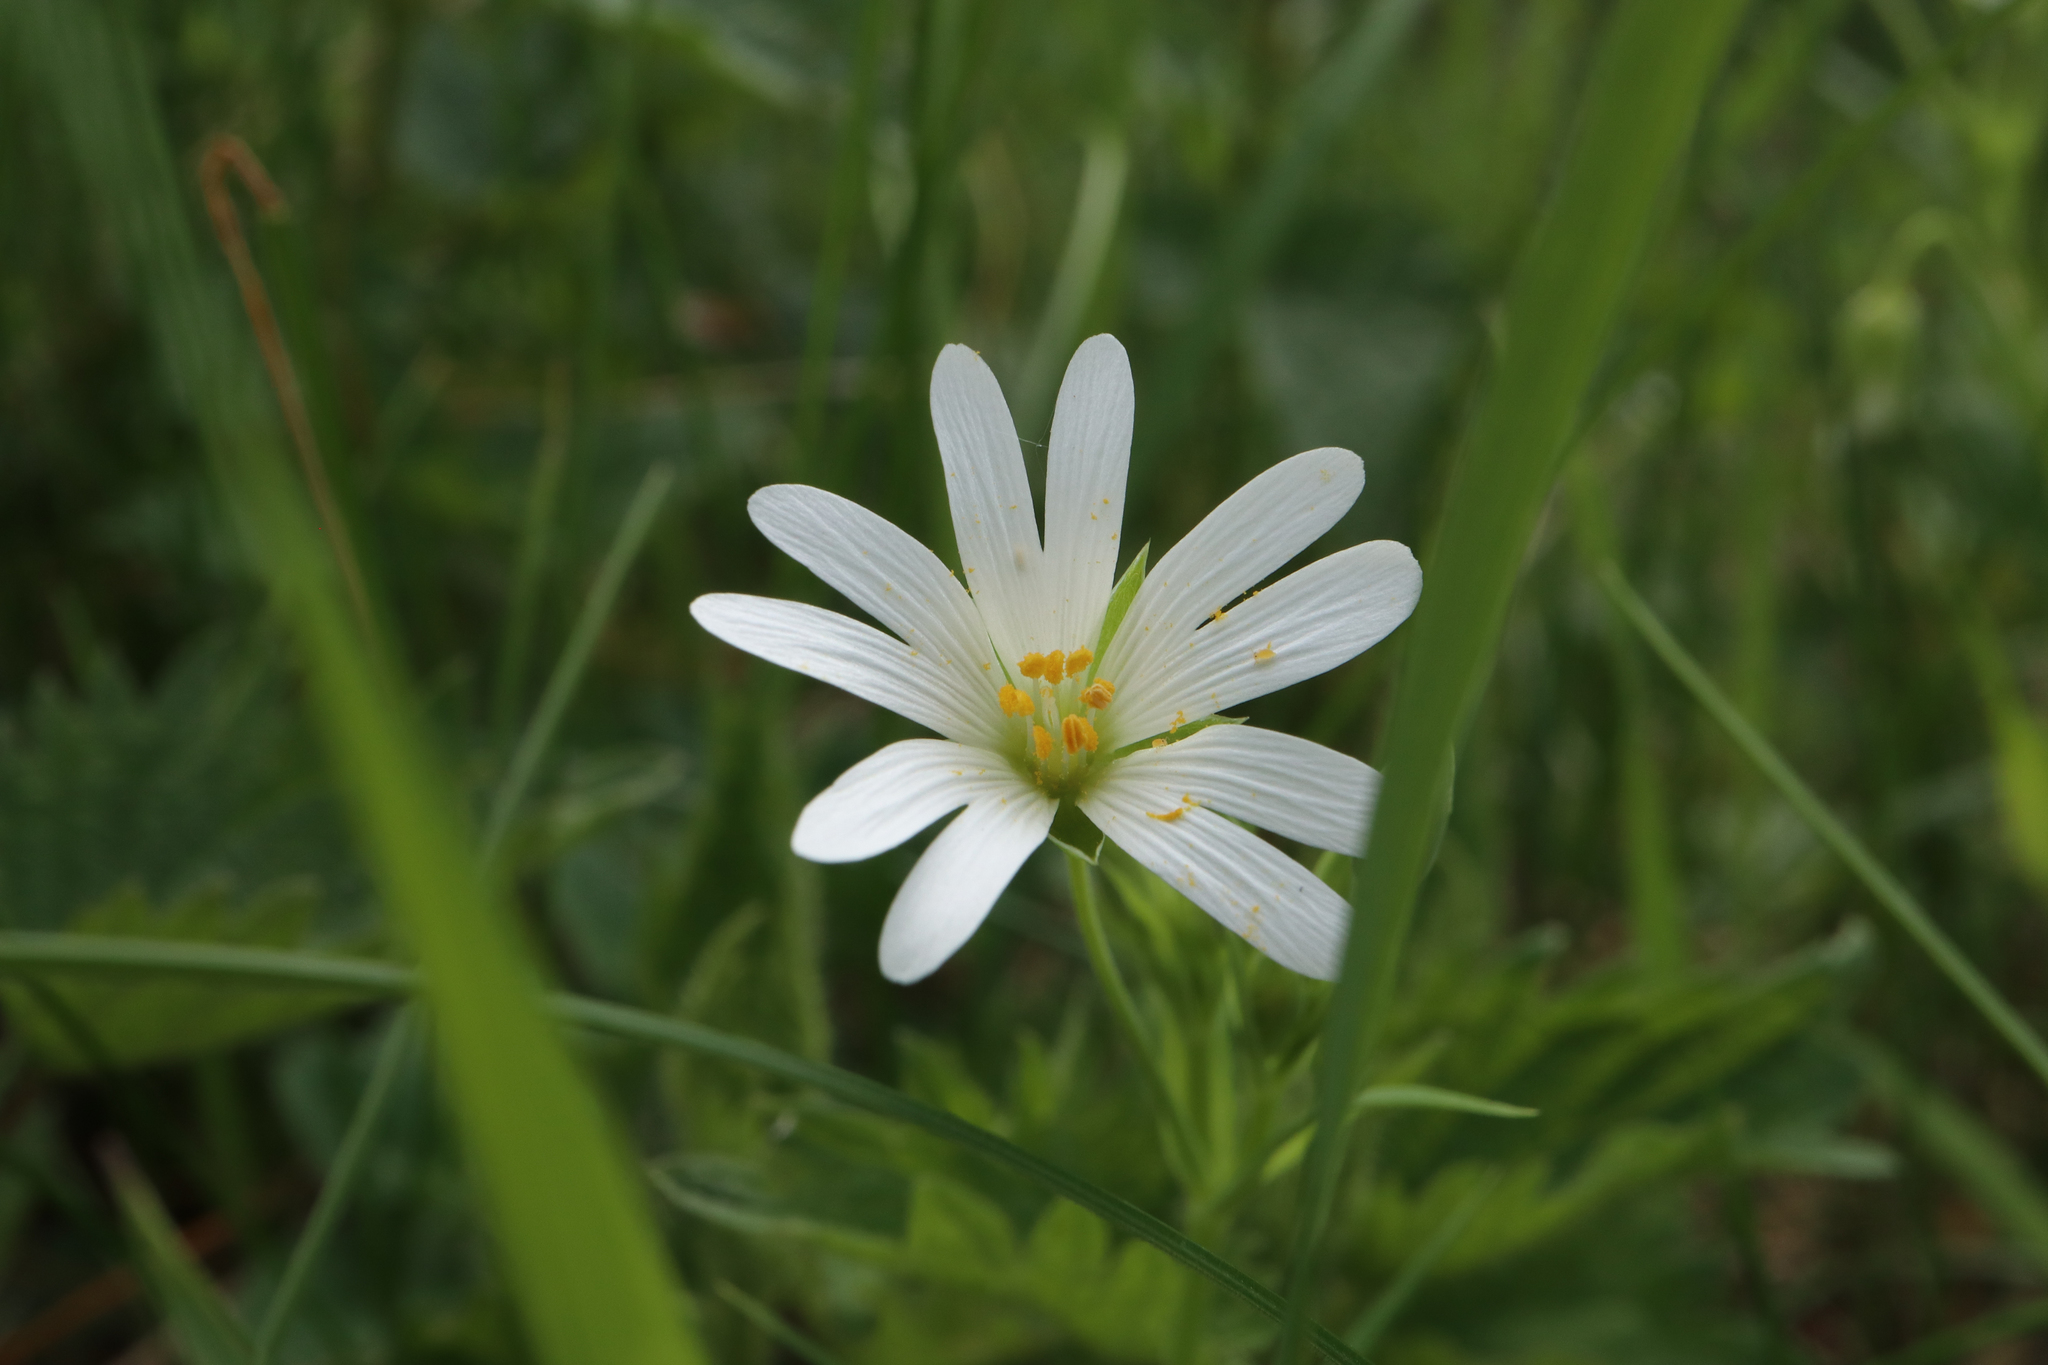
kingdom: Plantae
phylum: Tracheophyta
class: Magnoliopsida
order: Caryophyllales
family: Caryophyllaceae
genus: Rabelera
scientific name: Rabelera holostea
